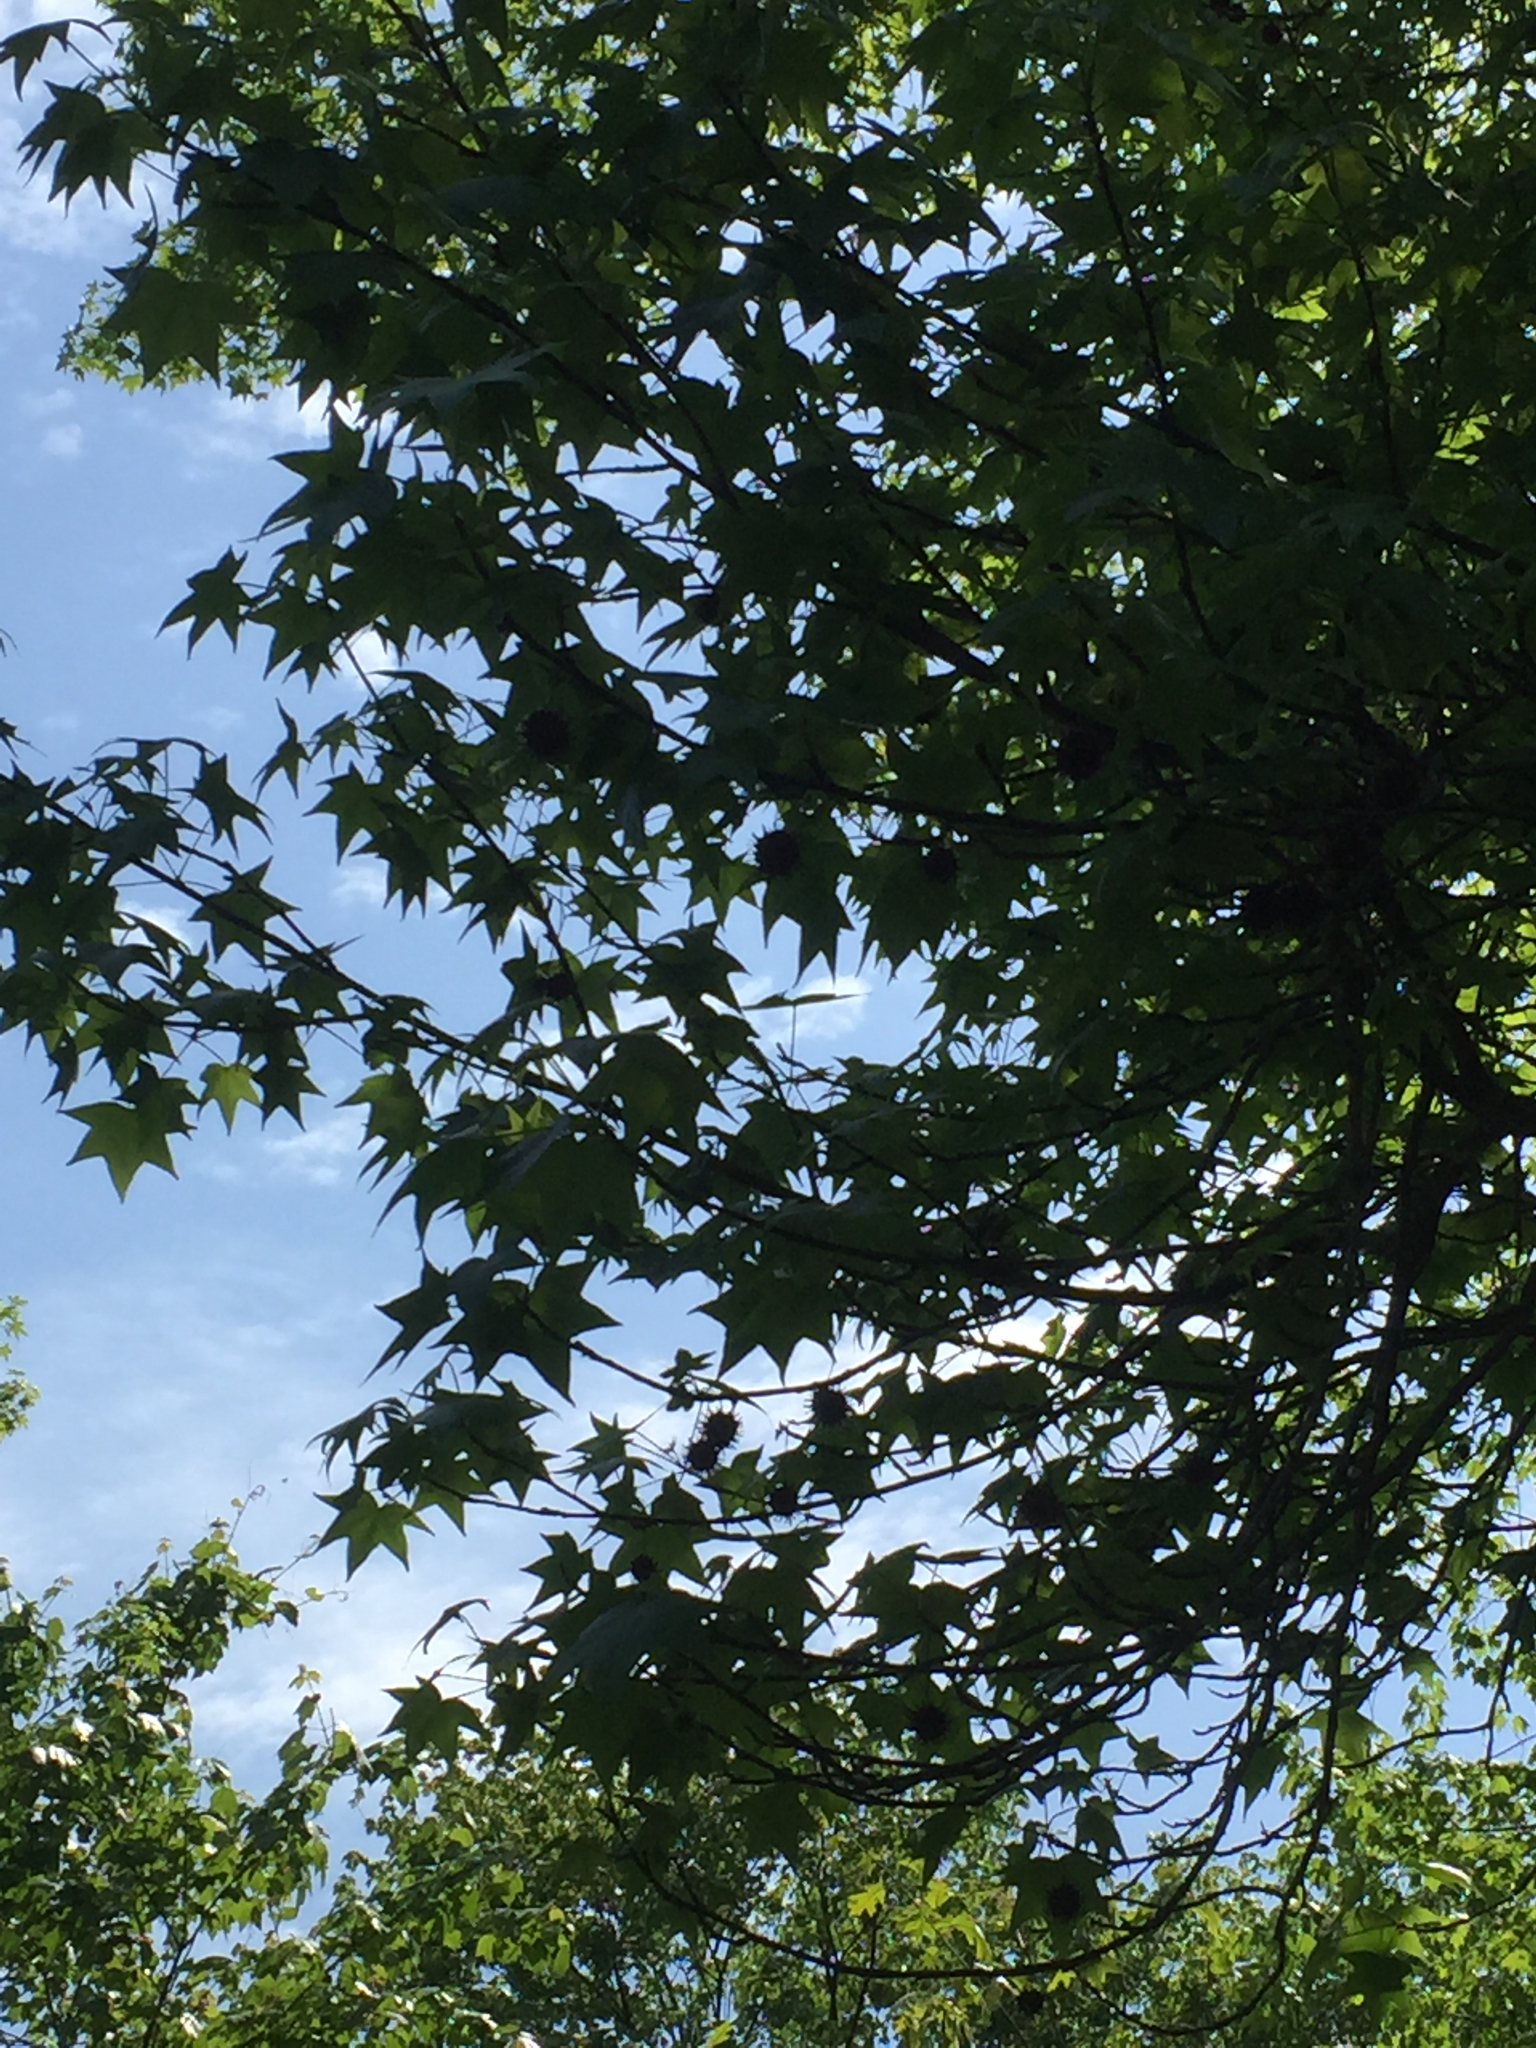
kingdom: Plantae
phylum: Tracheophyta
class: Magnoliopsida
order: Saxifragales
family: Altingiaceae
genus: Liquidambar
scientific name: Liquidambar styraciflua
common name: Sweet gum
